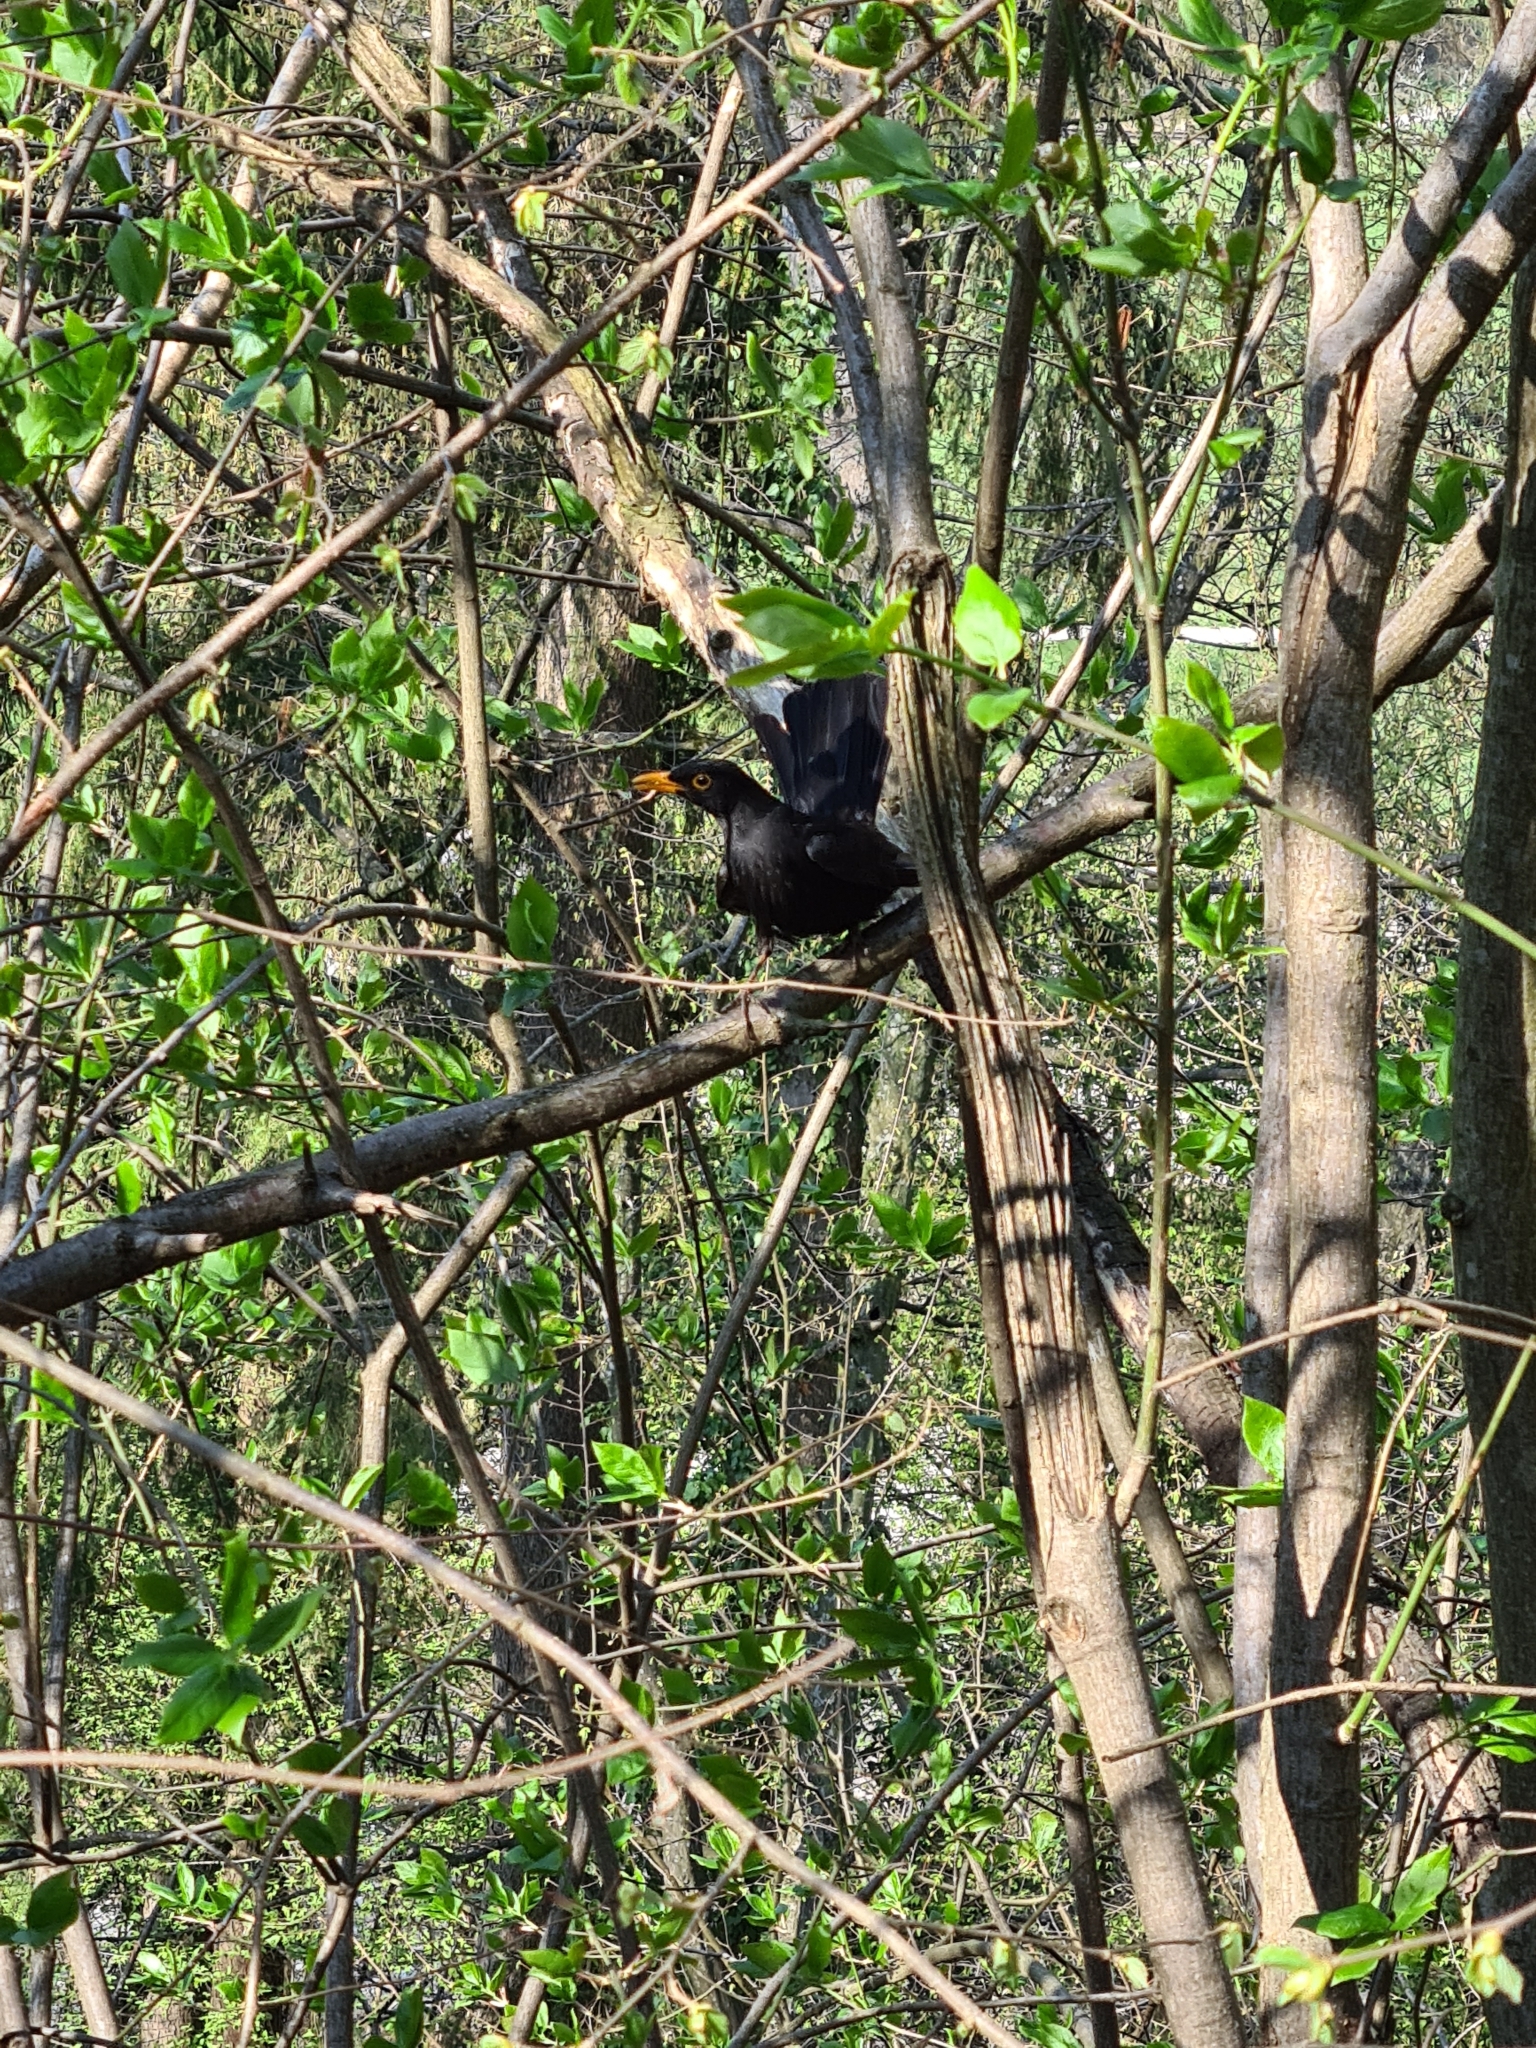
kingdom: Animalia
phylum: Chordata
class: Aves
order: Passeriformes
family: Turdidae
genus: Turdus
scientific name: Turdus merula
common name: Common blackbird
